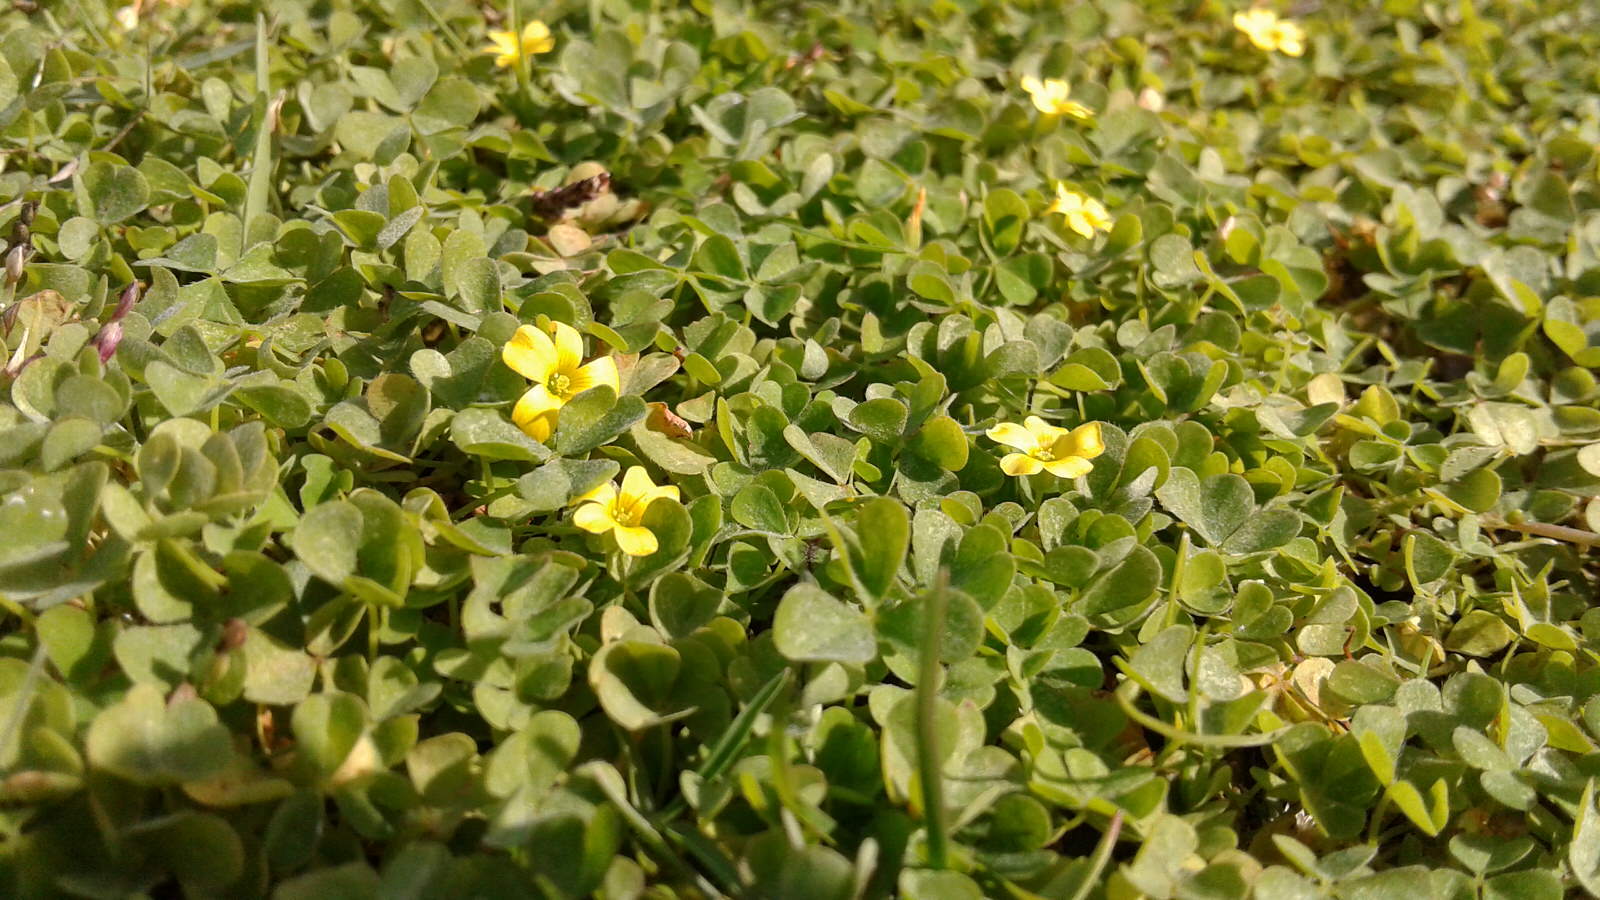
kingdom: Plantae
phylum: Tracheophyta
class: Magnoliopsida
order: Oxalidales
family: Oxalidaceae
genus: Oxalis
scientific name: Oxalis exilis
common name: Least yellow-sorrel
